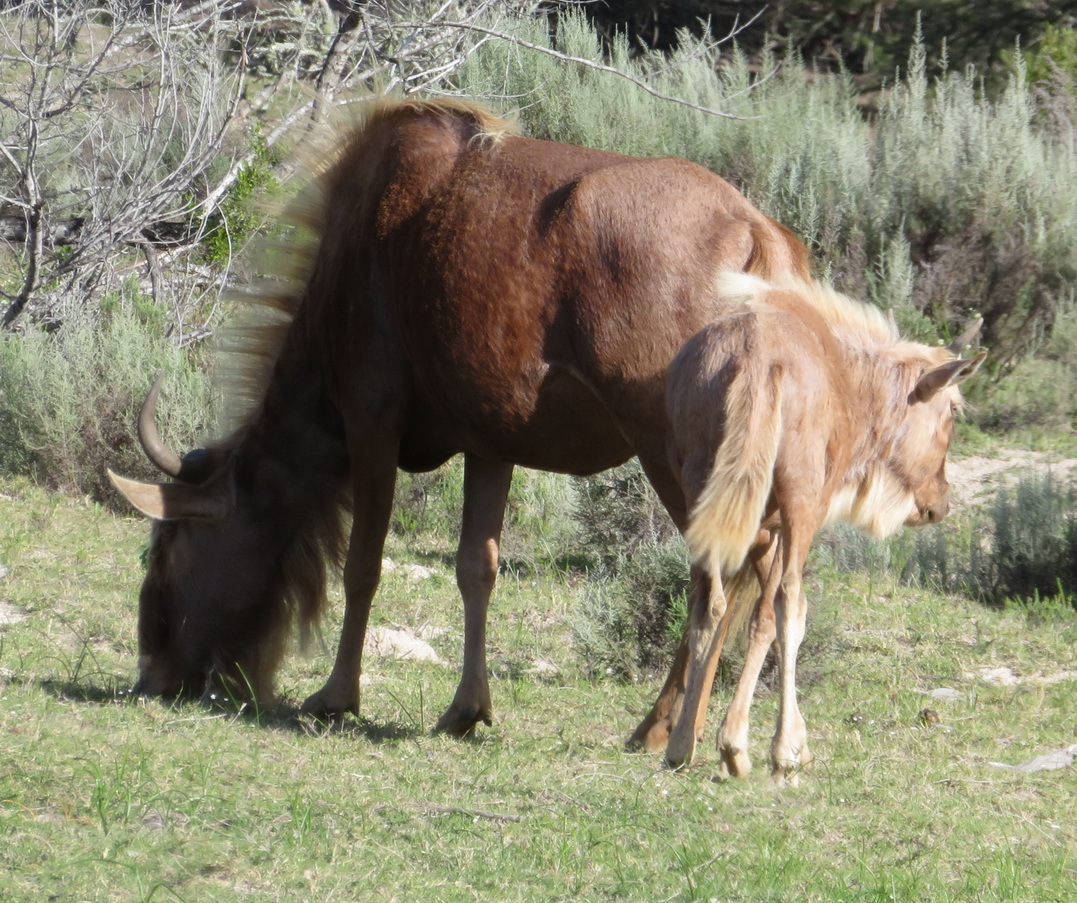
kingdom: Animalia
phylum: Chordata
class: Mammalia
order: Artiodactyla
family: Bovidae
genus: Connochaetes
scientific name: Connochaetes taurinus
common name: Blue wildebeest
